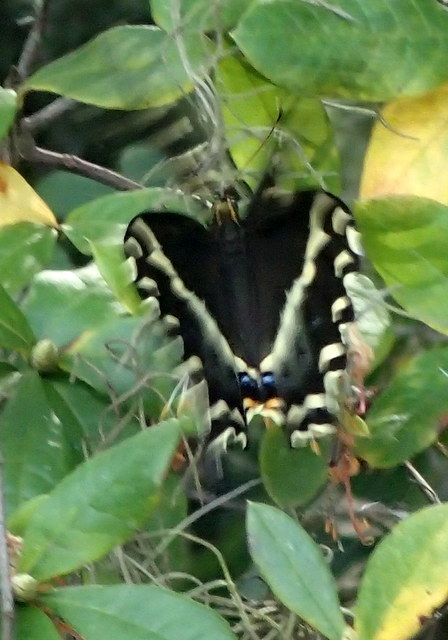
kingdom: Animalia
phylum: Arthropoda
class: Insecta
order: Lepidoptera
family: Papilionidae
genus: Papilio
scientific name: Papilio palamedes
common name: Palamedes swallowtail
